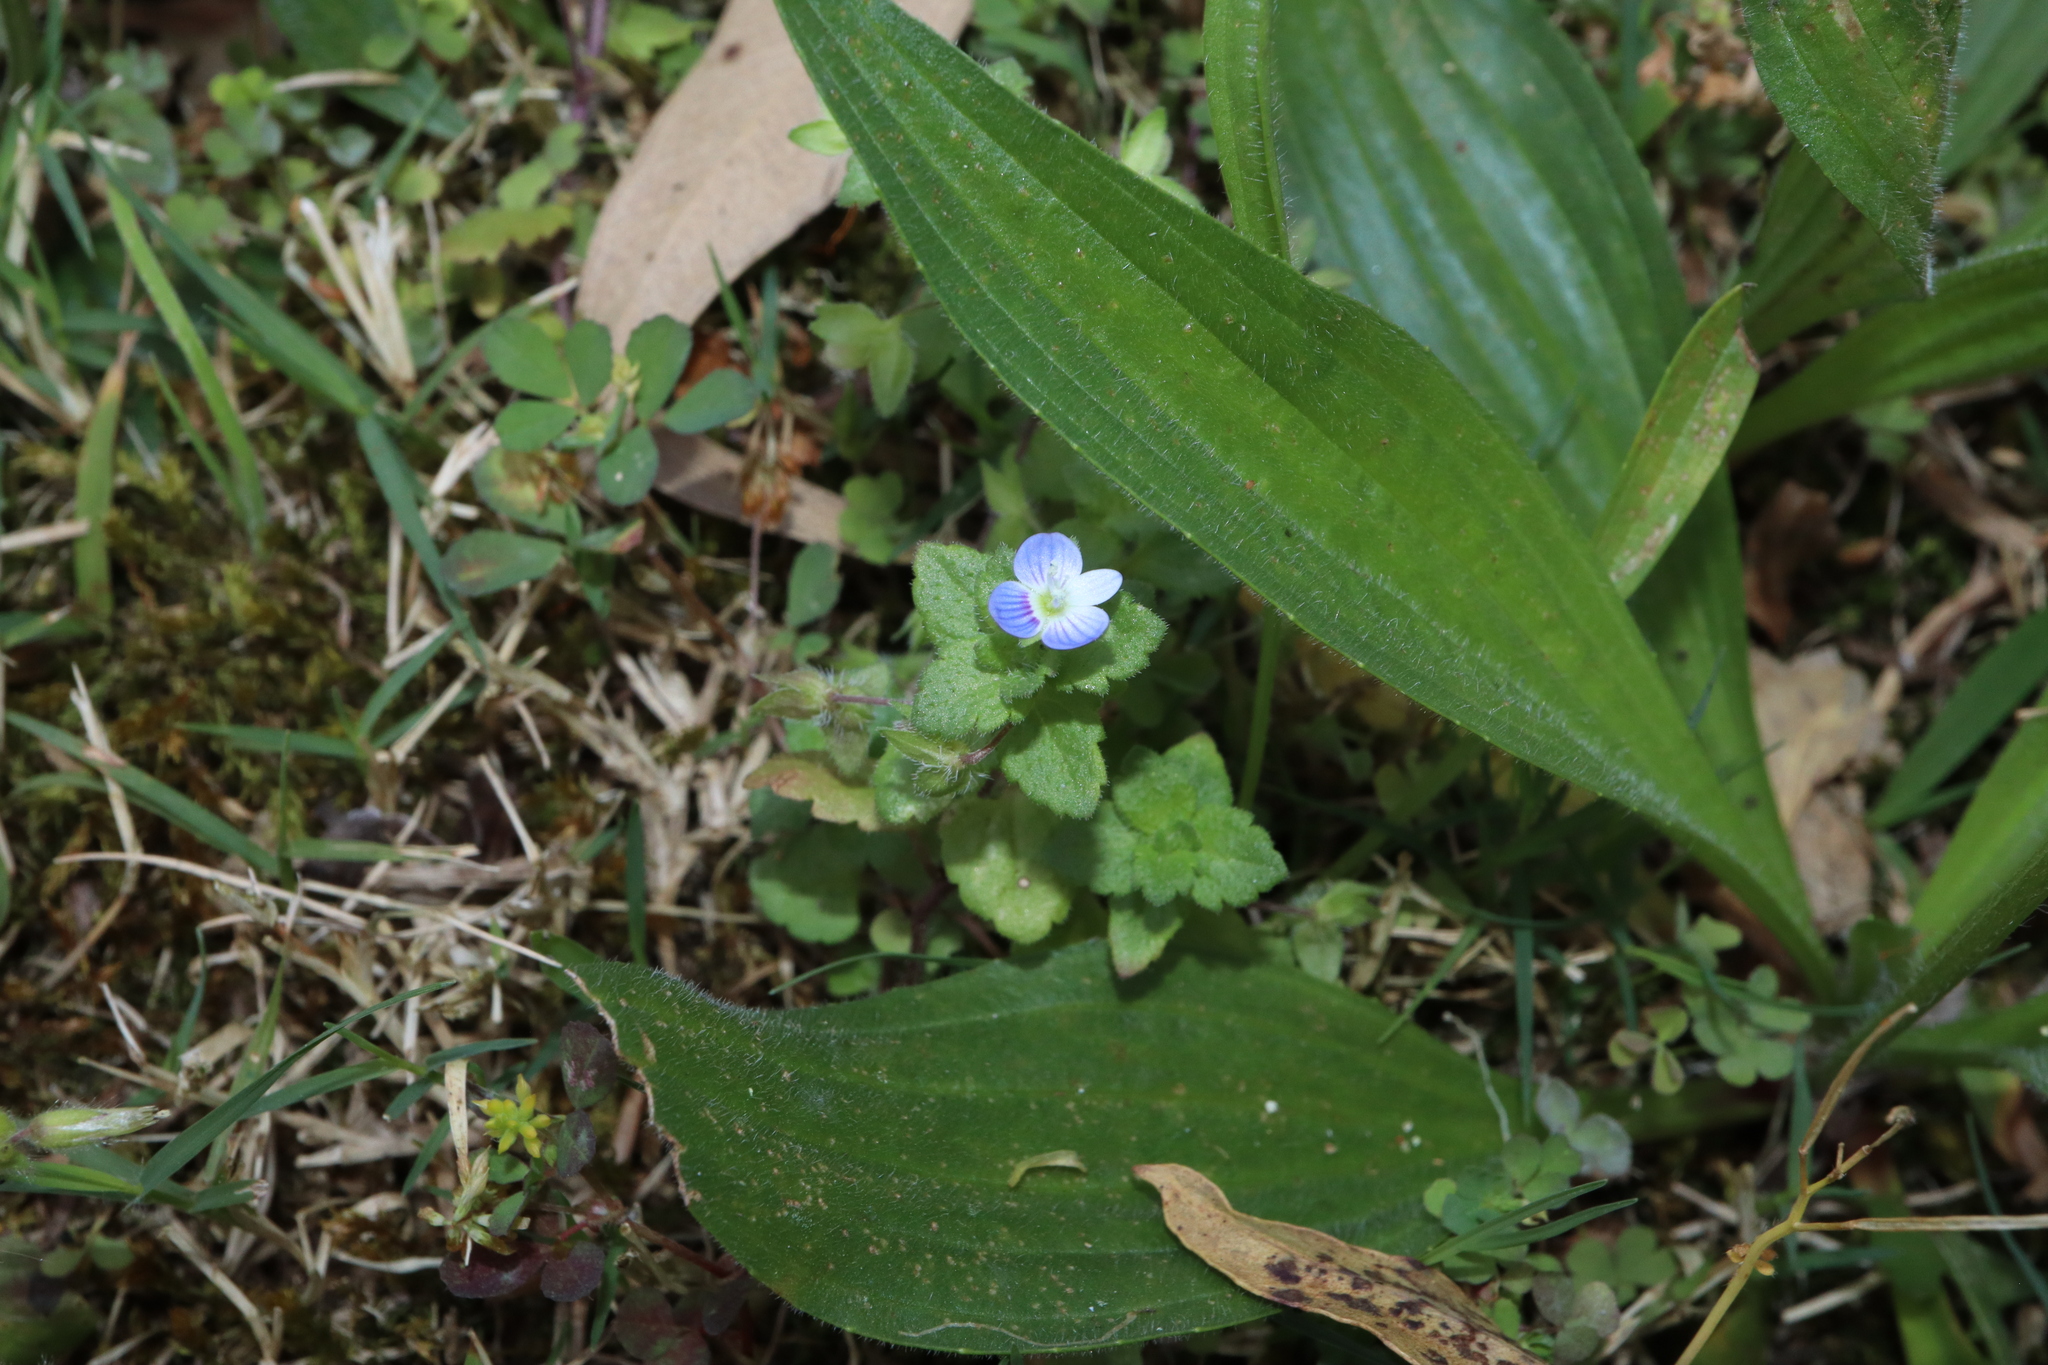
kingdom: Plantae
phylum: Tracheophyta
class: Magnoliopsida
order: Lamiales
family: Plantaginaceae
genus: Veronica
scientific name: Veronica persica
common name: Common field-speedwell
